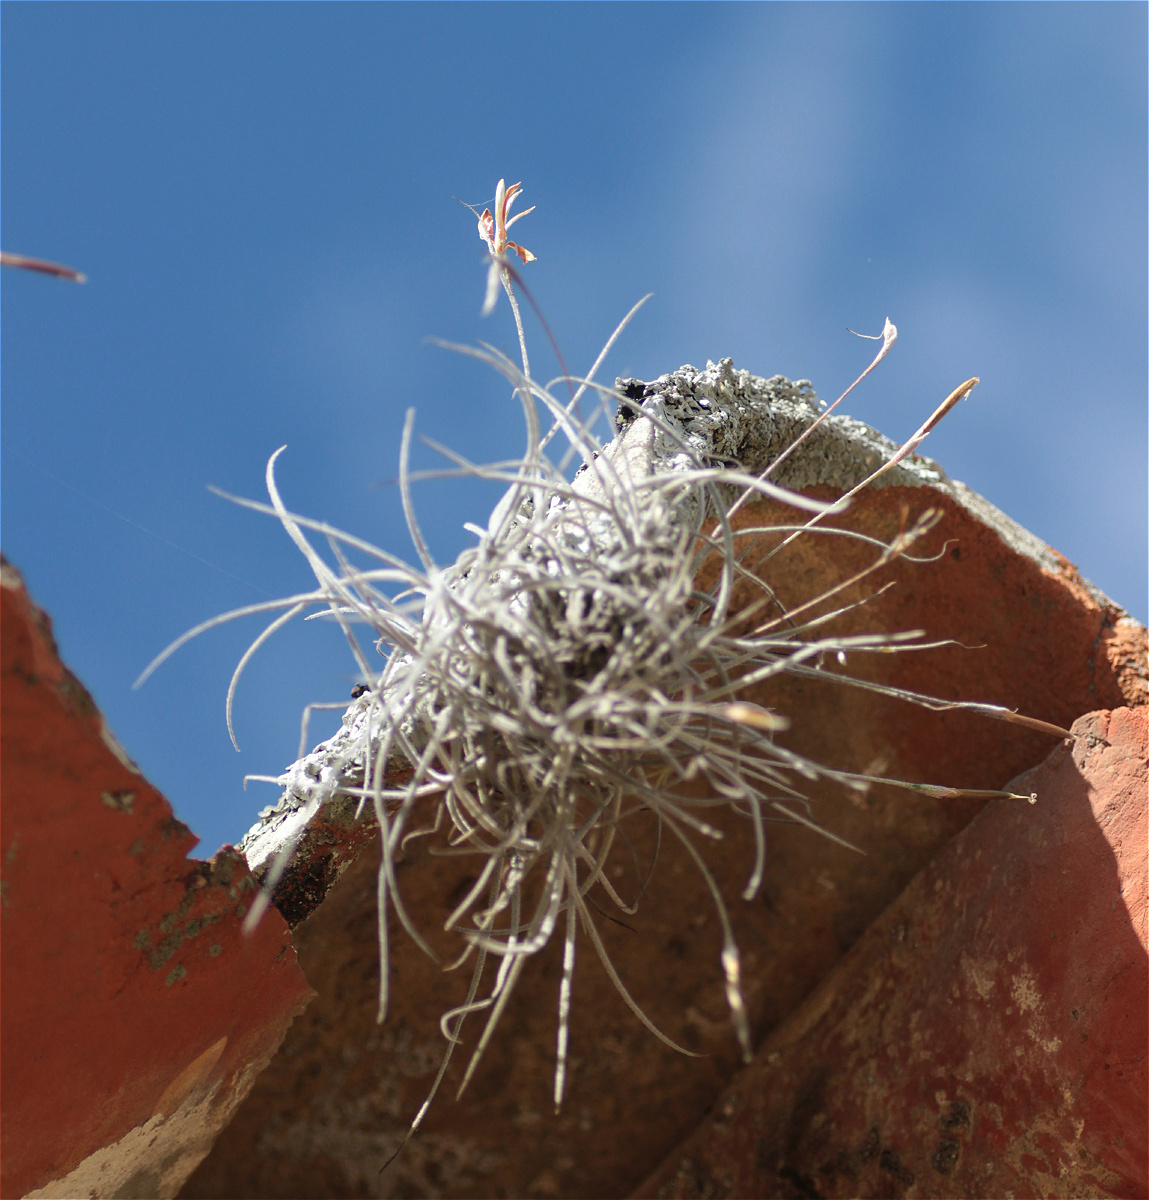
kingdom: Plantae
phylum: Tracheophyta
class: Liliopsida
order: Poales
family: Bromeliaceae
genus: Tillandsia
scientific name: Tillandsia recurvata
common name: Small ballmoss
